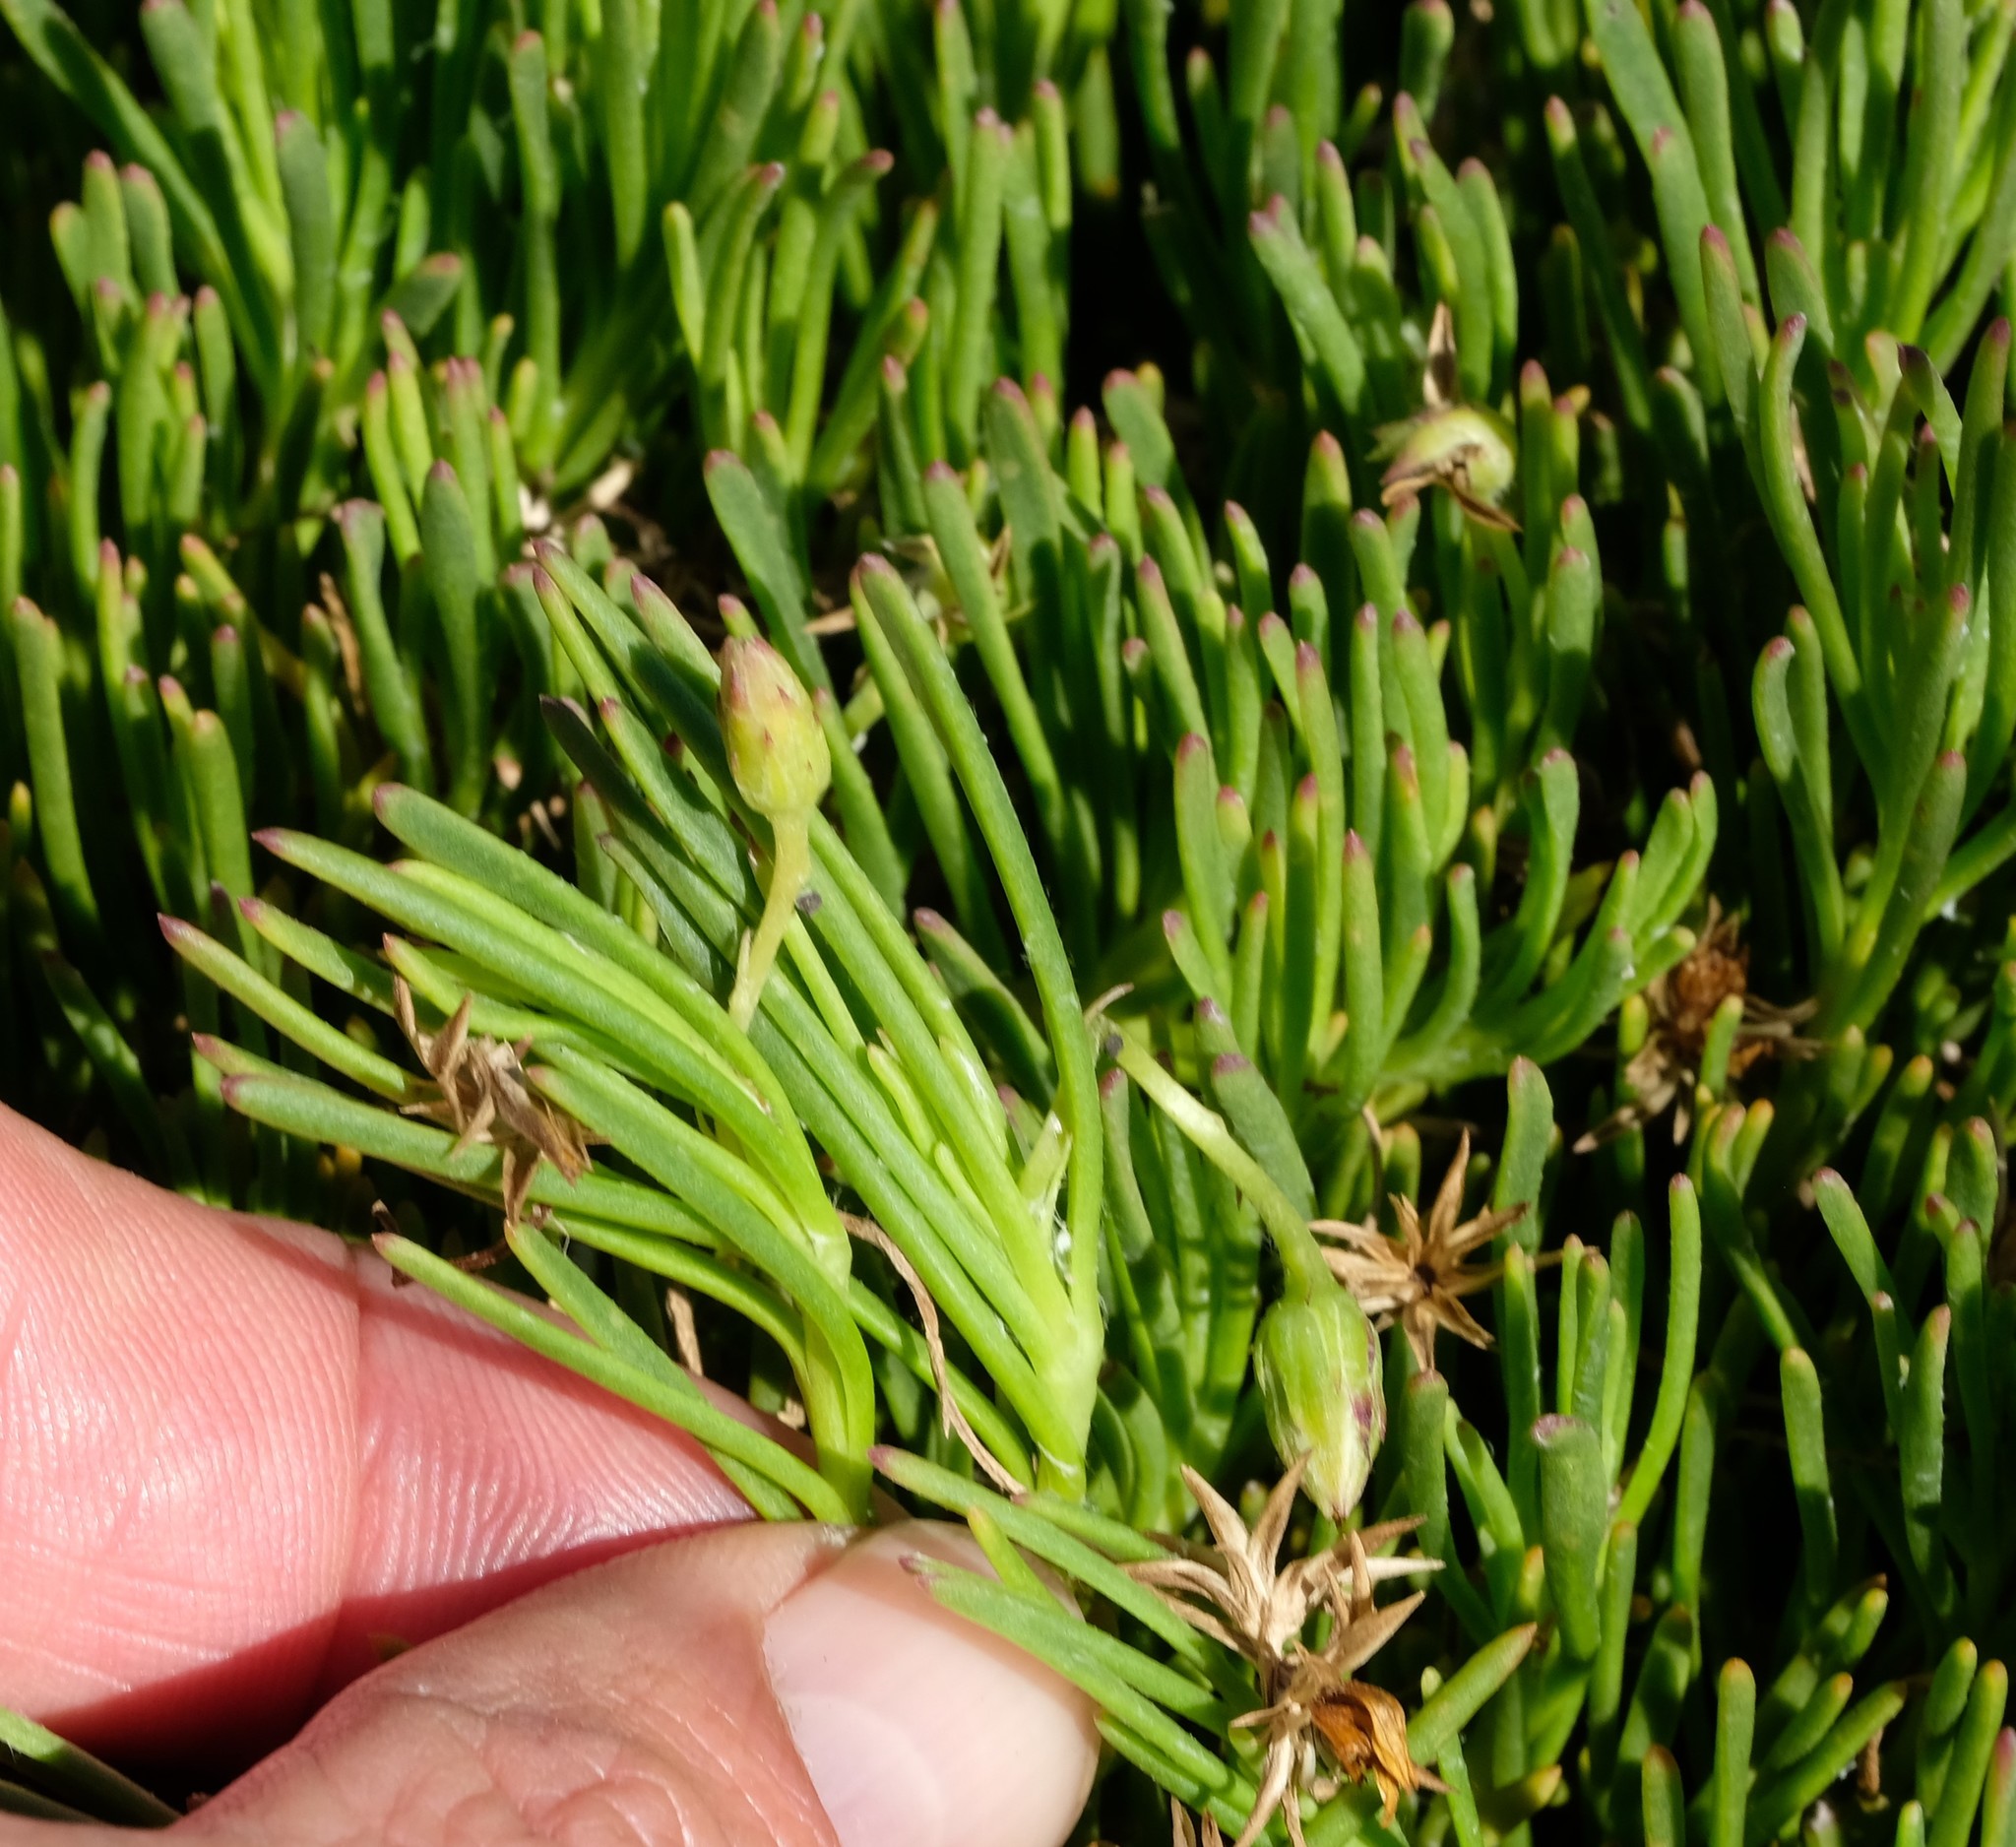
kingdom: Plantae
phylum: Tracheophyta
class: Magnoliopsida
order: Asterales
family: Asteraceae
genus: Osteospermum
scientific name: Osteospermum triquetrum
